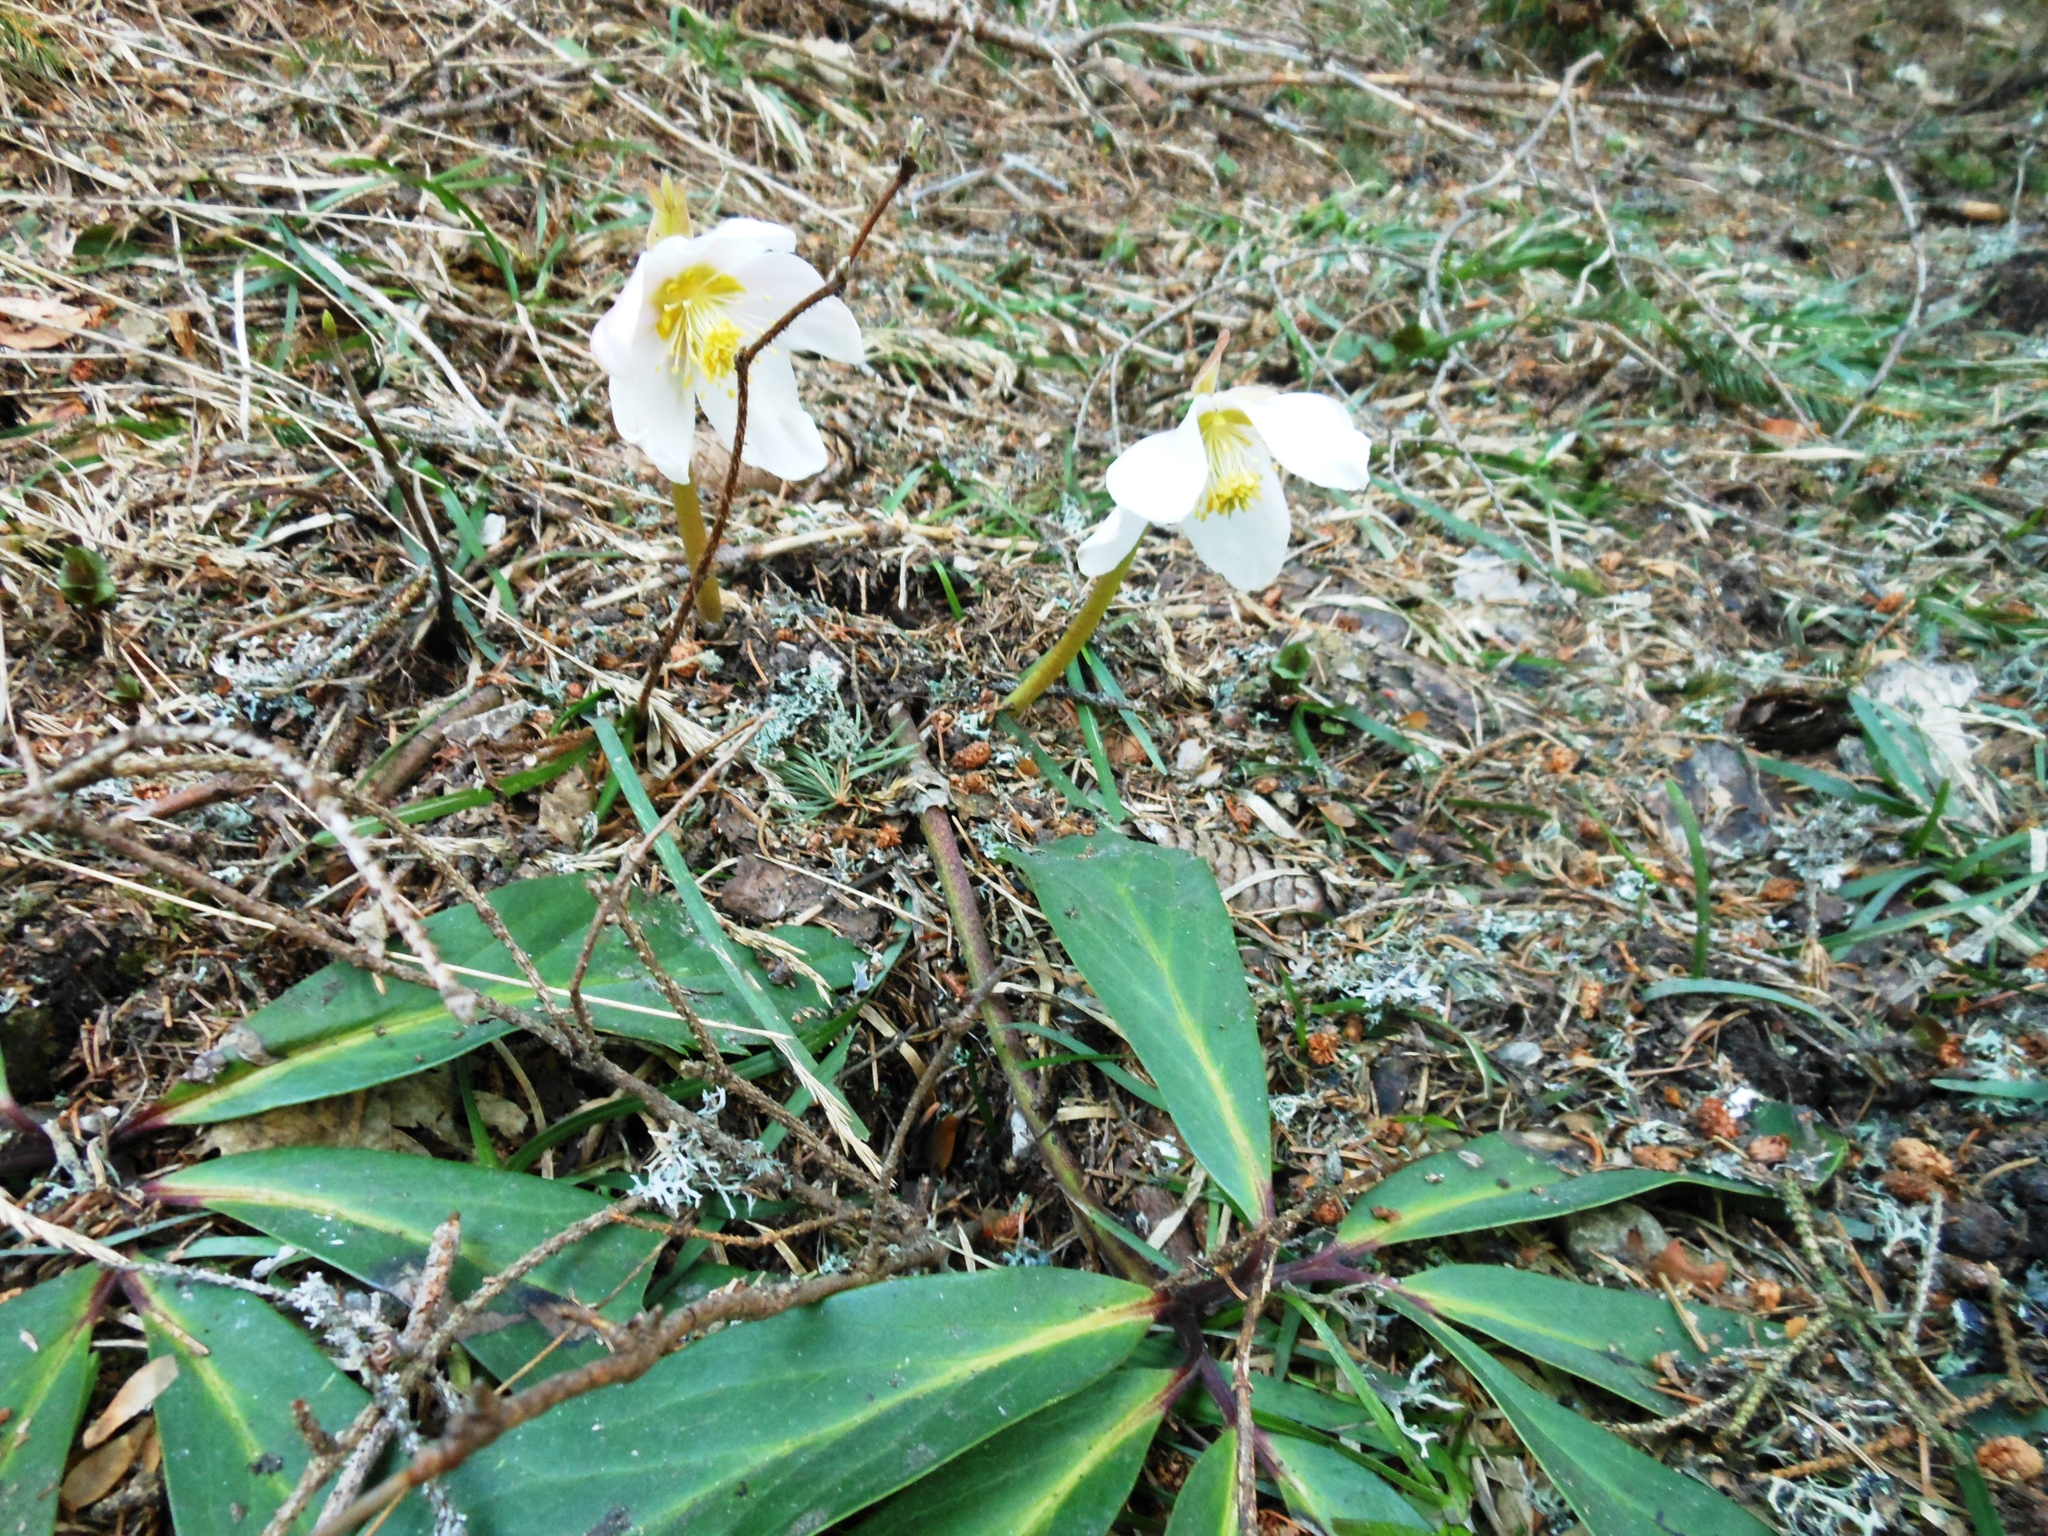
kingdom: Plantae
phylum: Tracheophyta
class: Magnoliopsida
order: Ranunculales
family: Ranunculaceae
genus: Helleborus
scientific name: Helleborus niger
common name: Black hellebore
